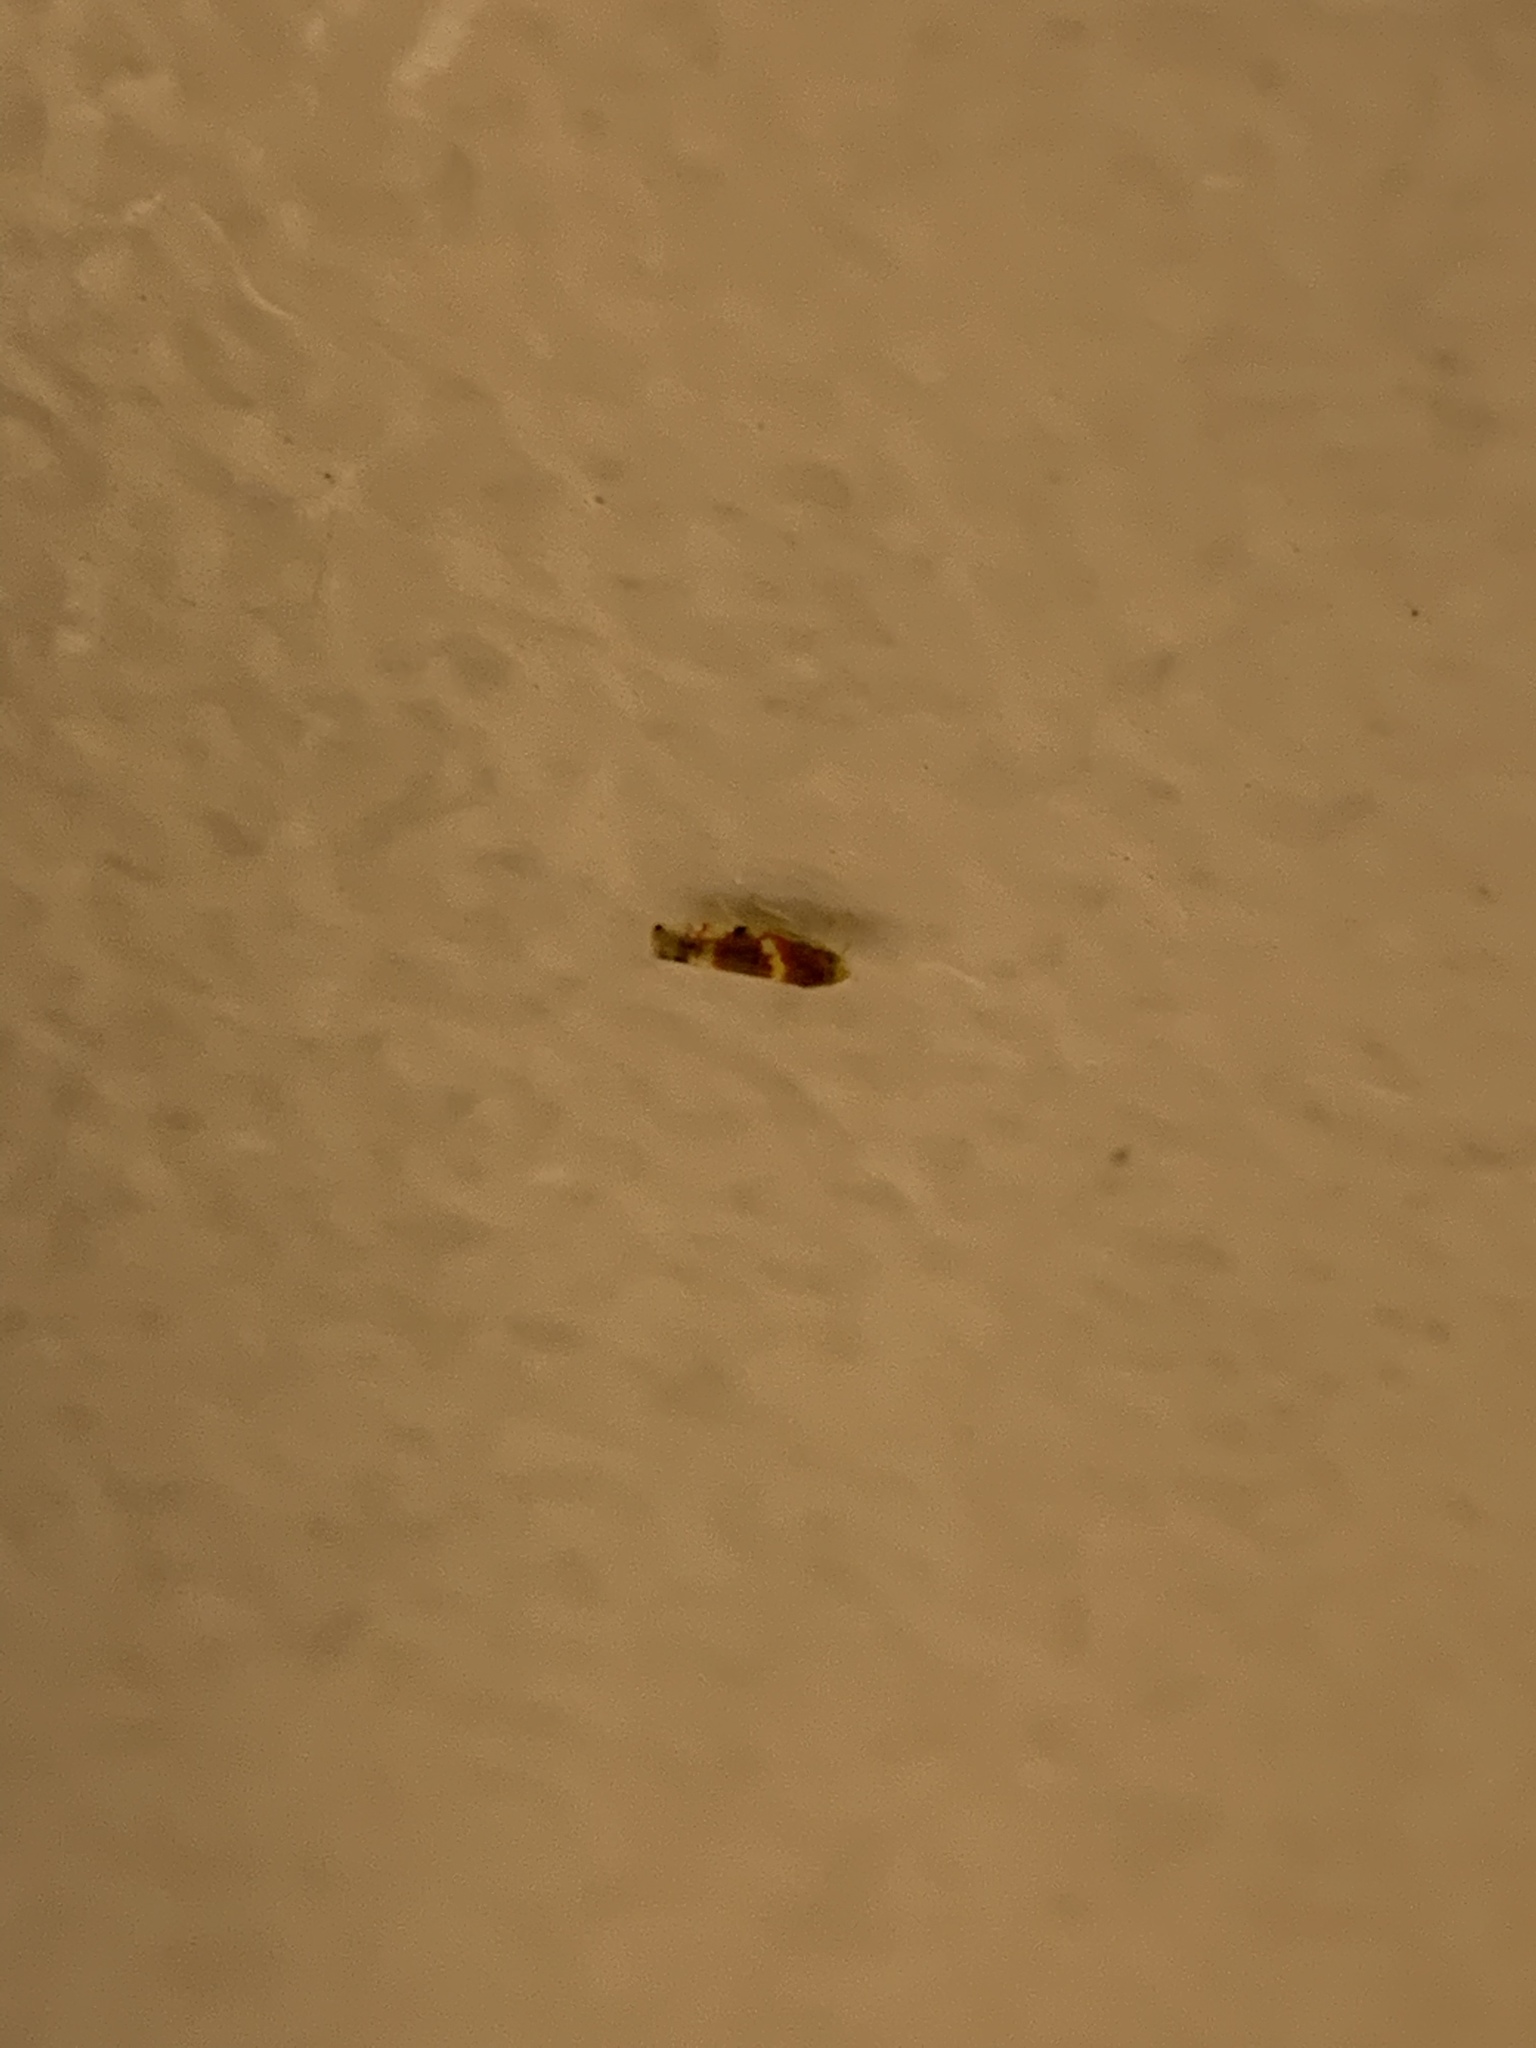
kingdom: Animalia
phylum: Arthropoda
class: Insecta
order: Hemiptera
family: Cicadellidae
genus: Erythroneura
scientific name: Erythroneura vitis
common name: Grapevine leafhopper
